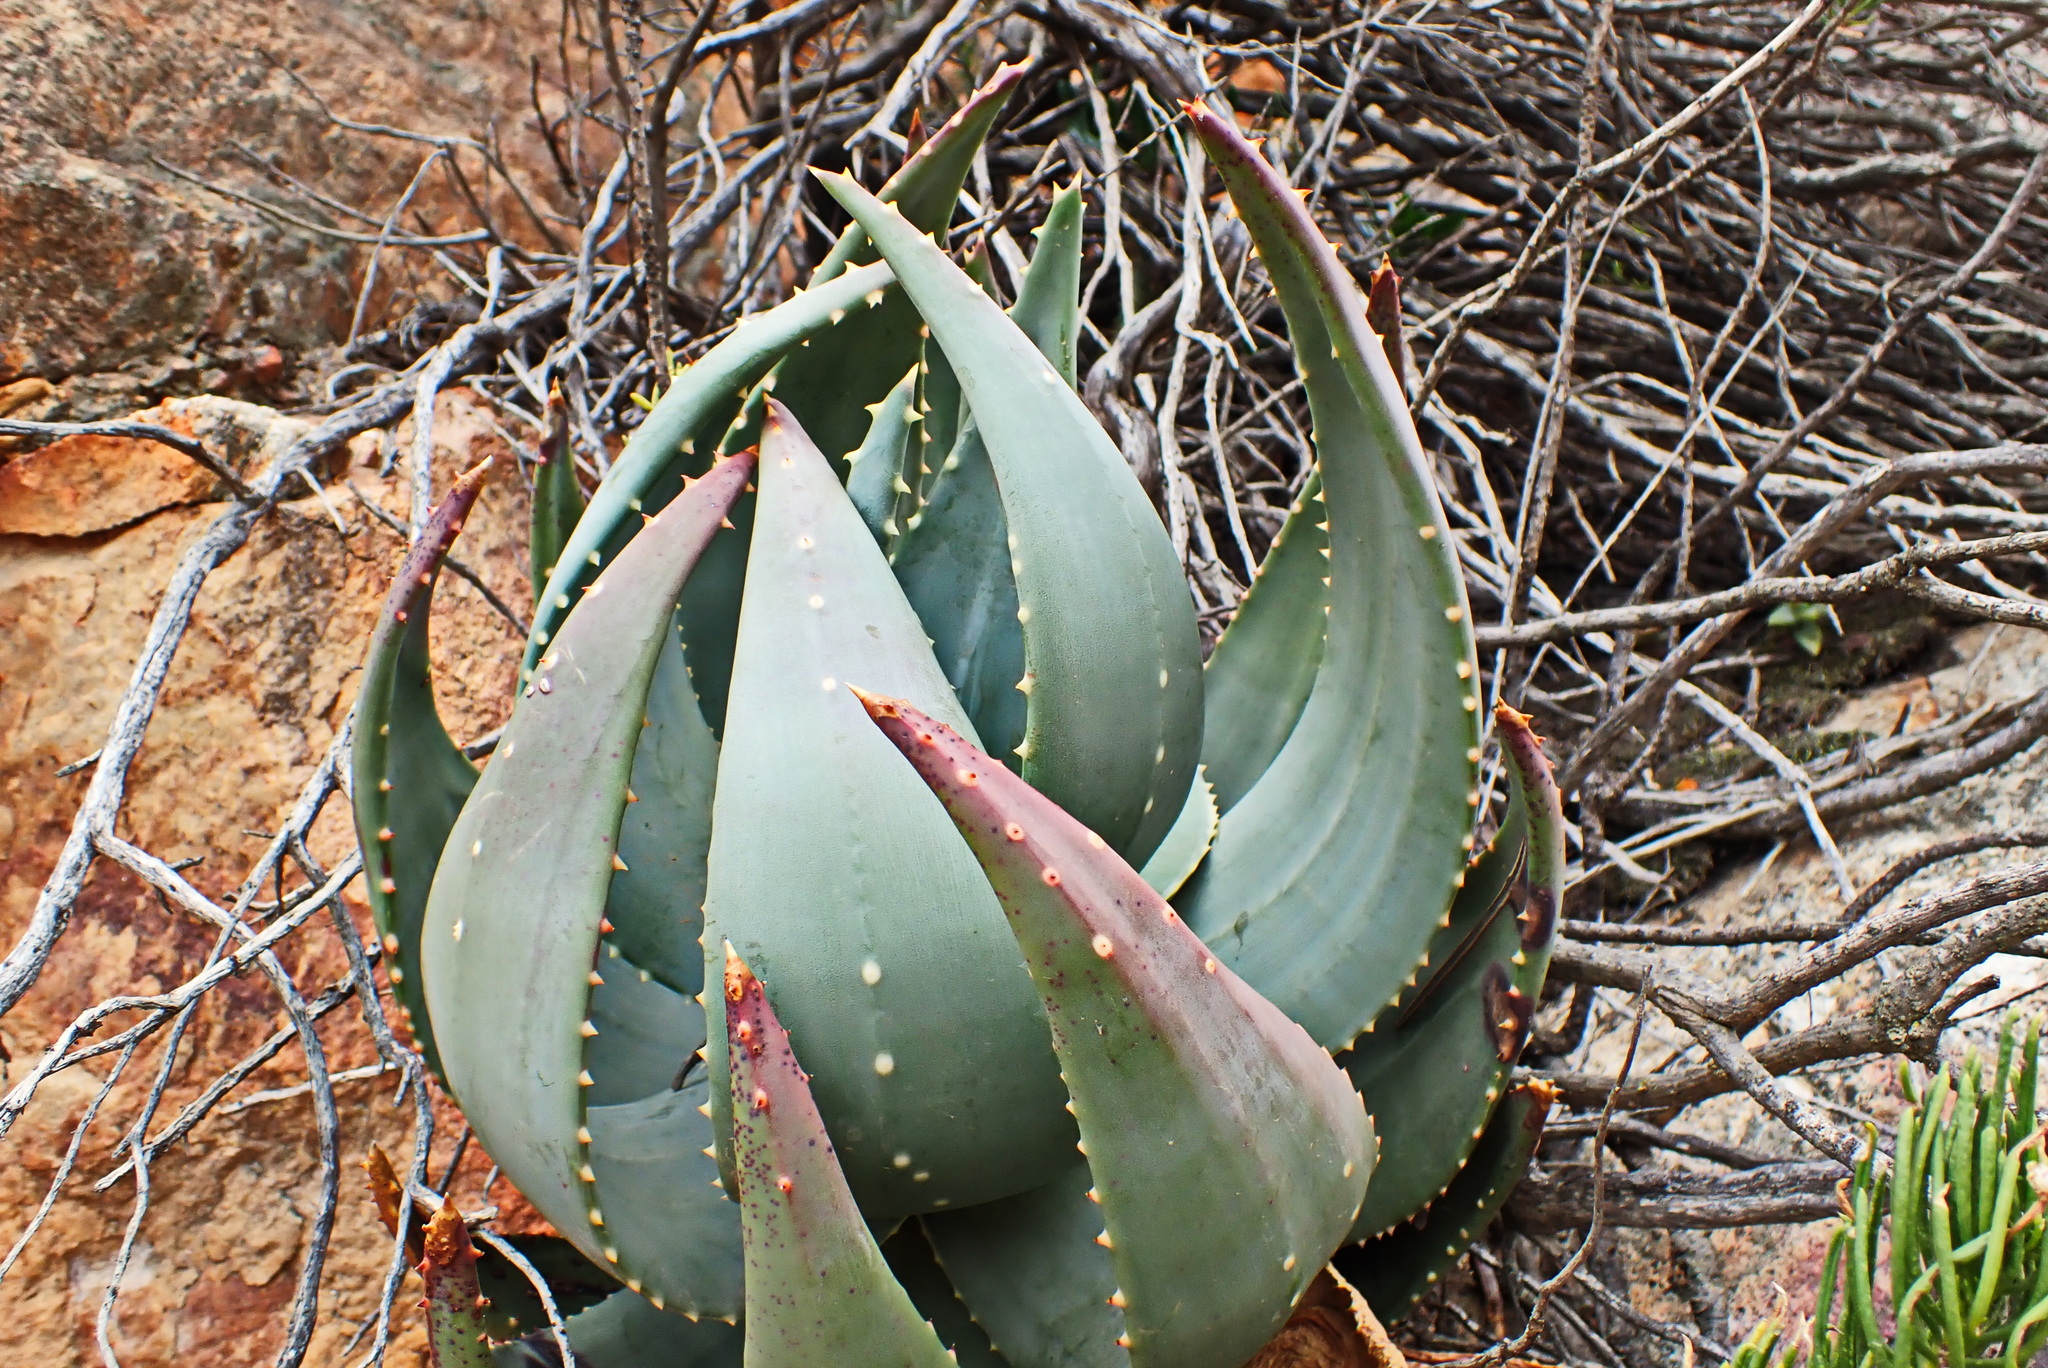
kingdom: Plantae
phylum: Tracheophyta
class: Liliopsida
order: Asparagales
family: Asphodelaceae
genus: Aloe
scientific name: Aloe comptonii
